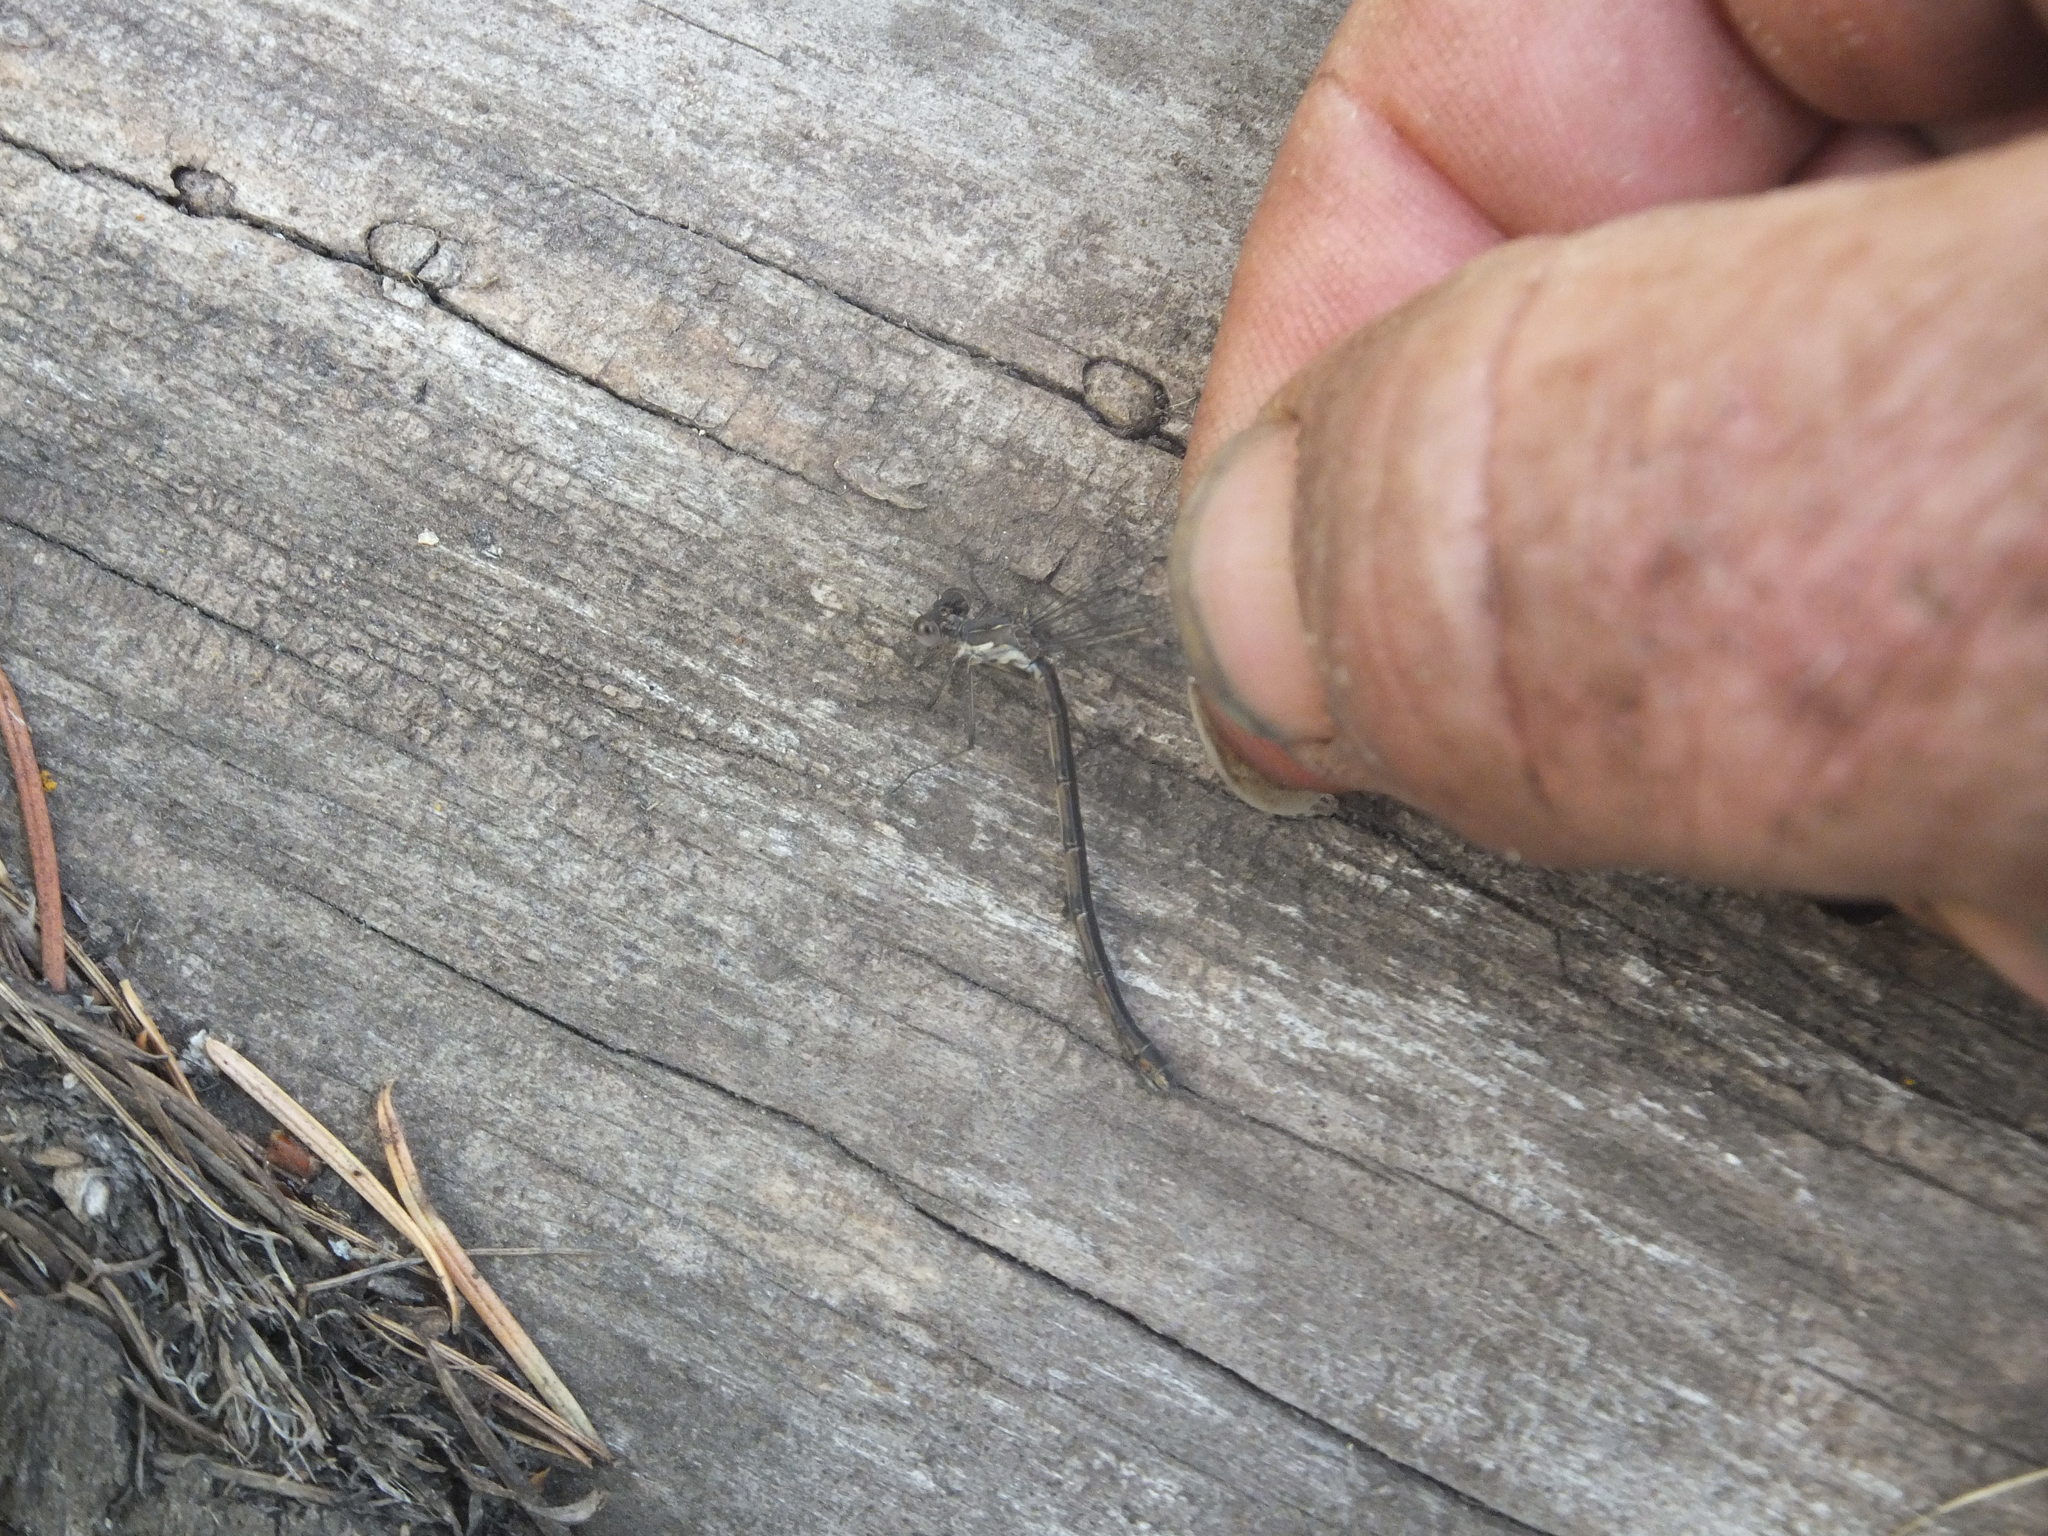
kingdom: Animalia
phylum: Arthropoda
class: Insecta
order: Odonata
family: Lestidae
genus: Lestes
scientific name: Lestes congener
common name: Spotted spreadwing
